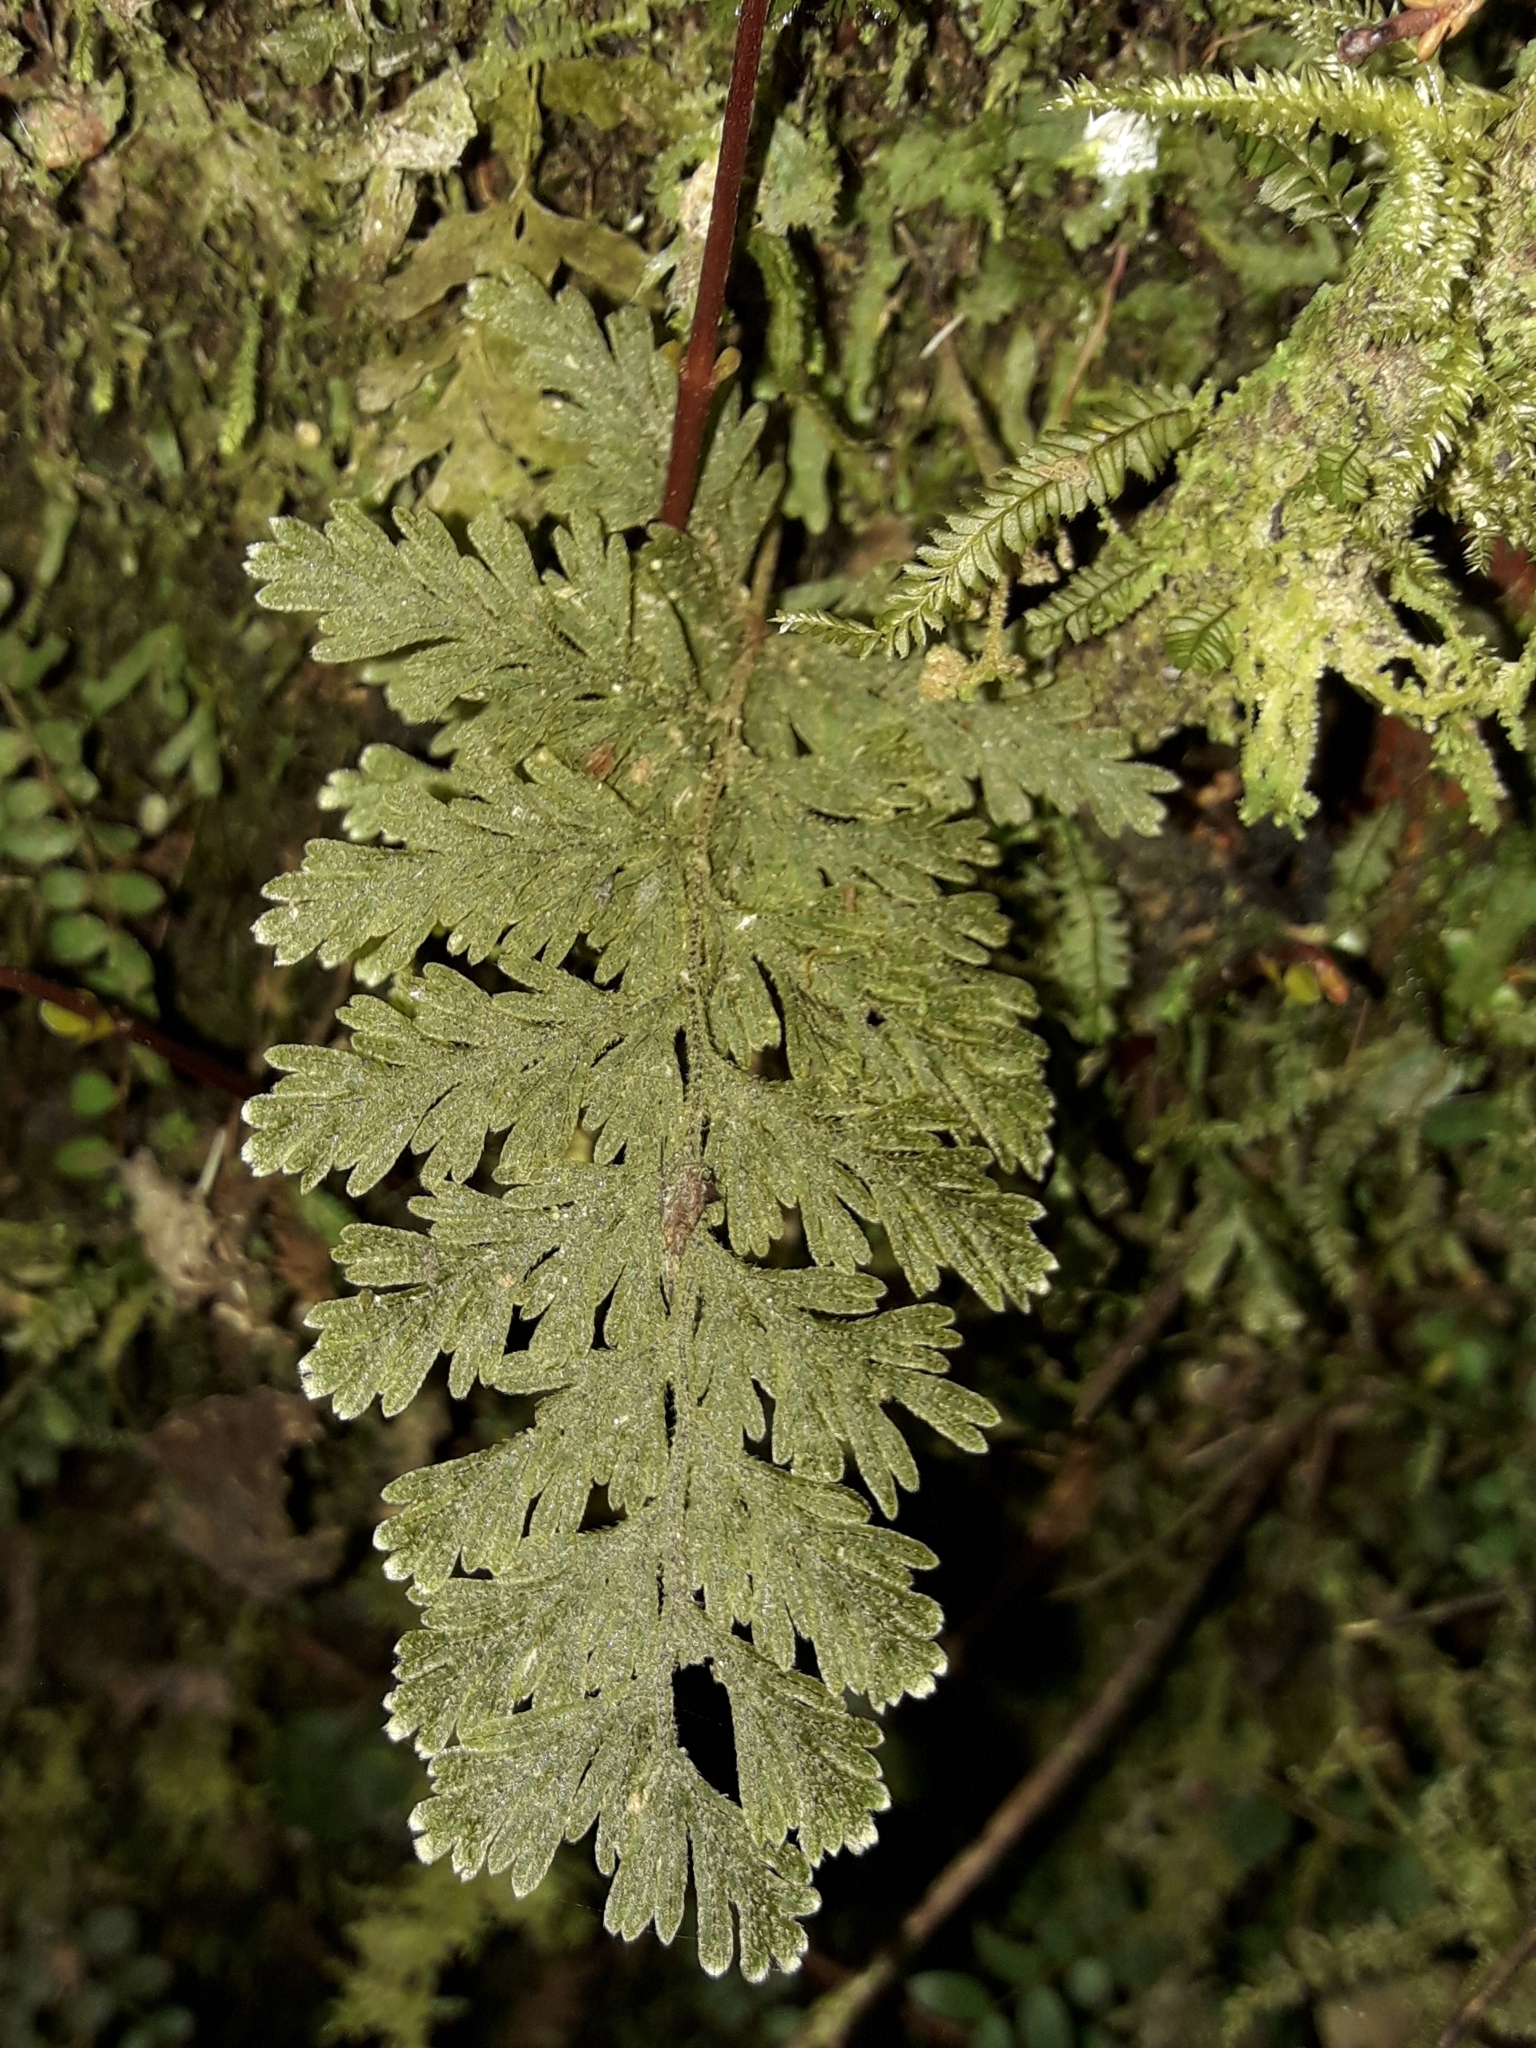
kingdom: Plantae
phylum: Tracheophyta
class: Polypodiopsida
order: Hymenophyllales
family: Hymenophyllaceae
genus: Hymenophyllum
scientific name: Hymenophyllum frankliniae
